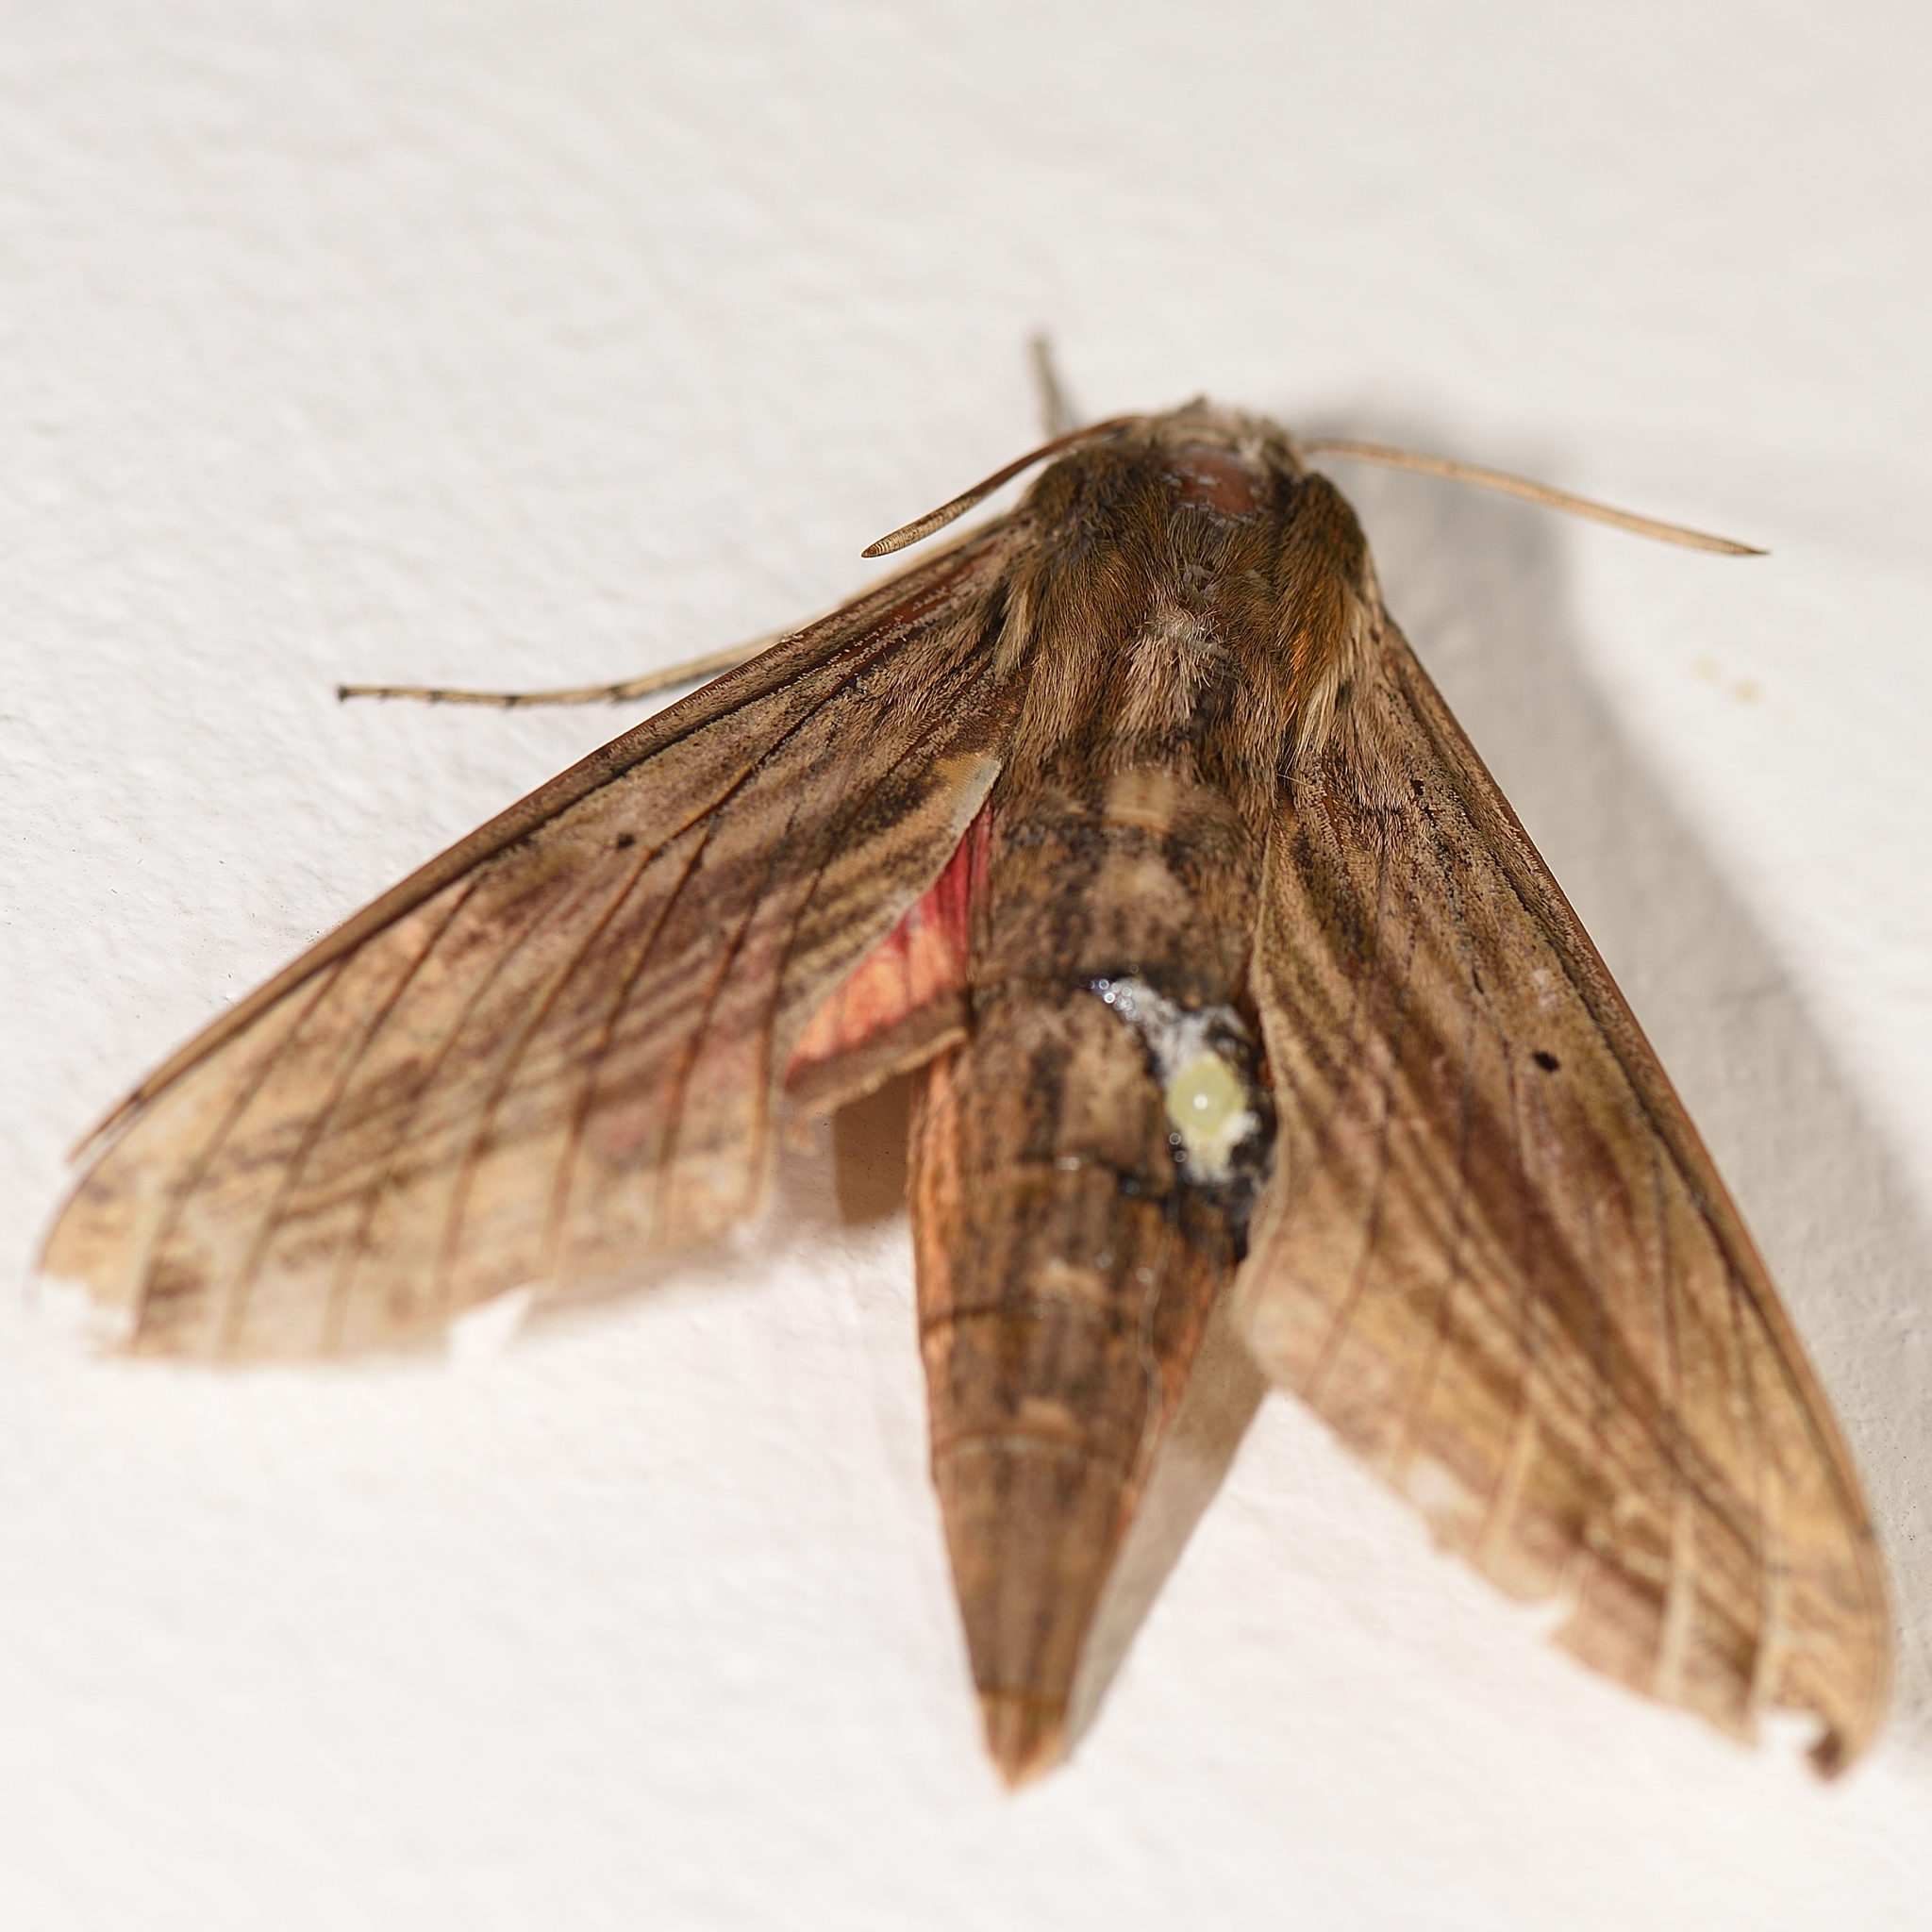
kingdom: Animalia
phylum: Arthropoda
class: Insecta
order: Lepidoptera
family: Sphingidae
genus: Hippotion
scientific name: Hippotion eson
